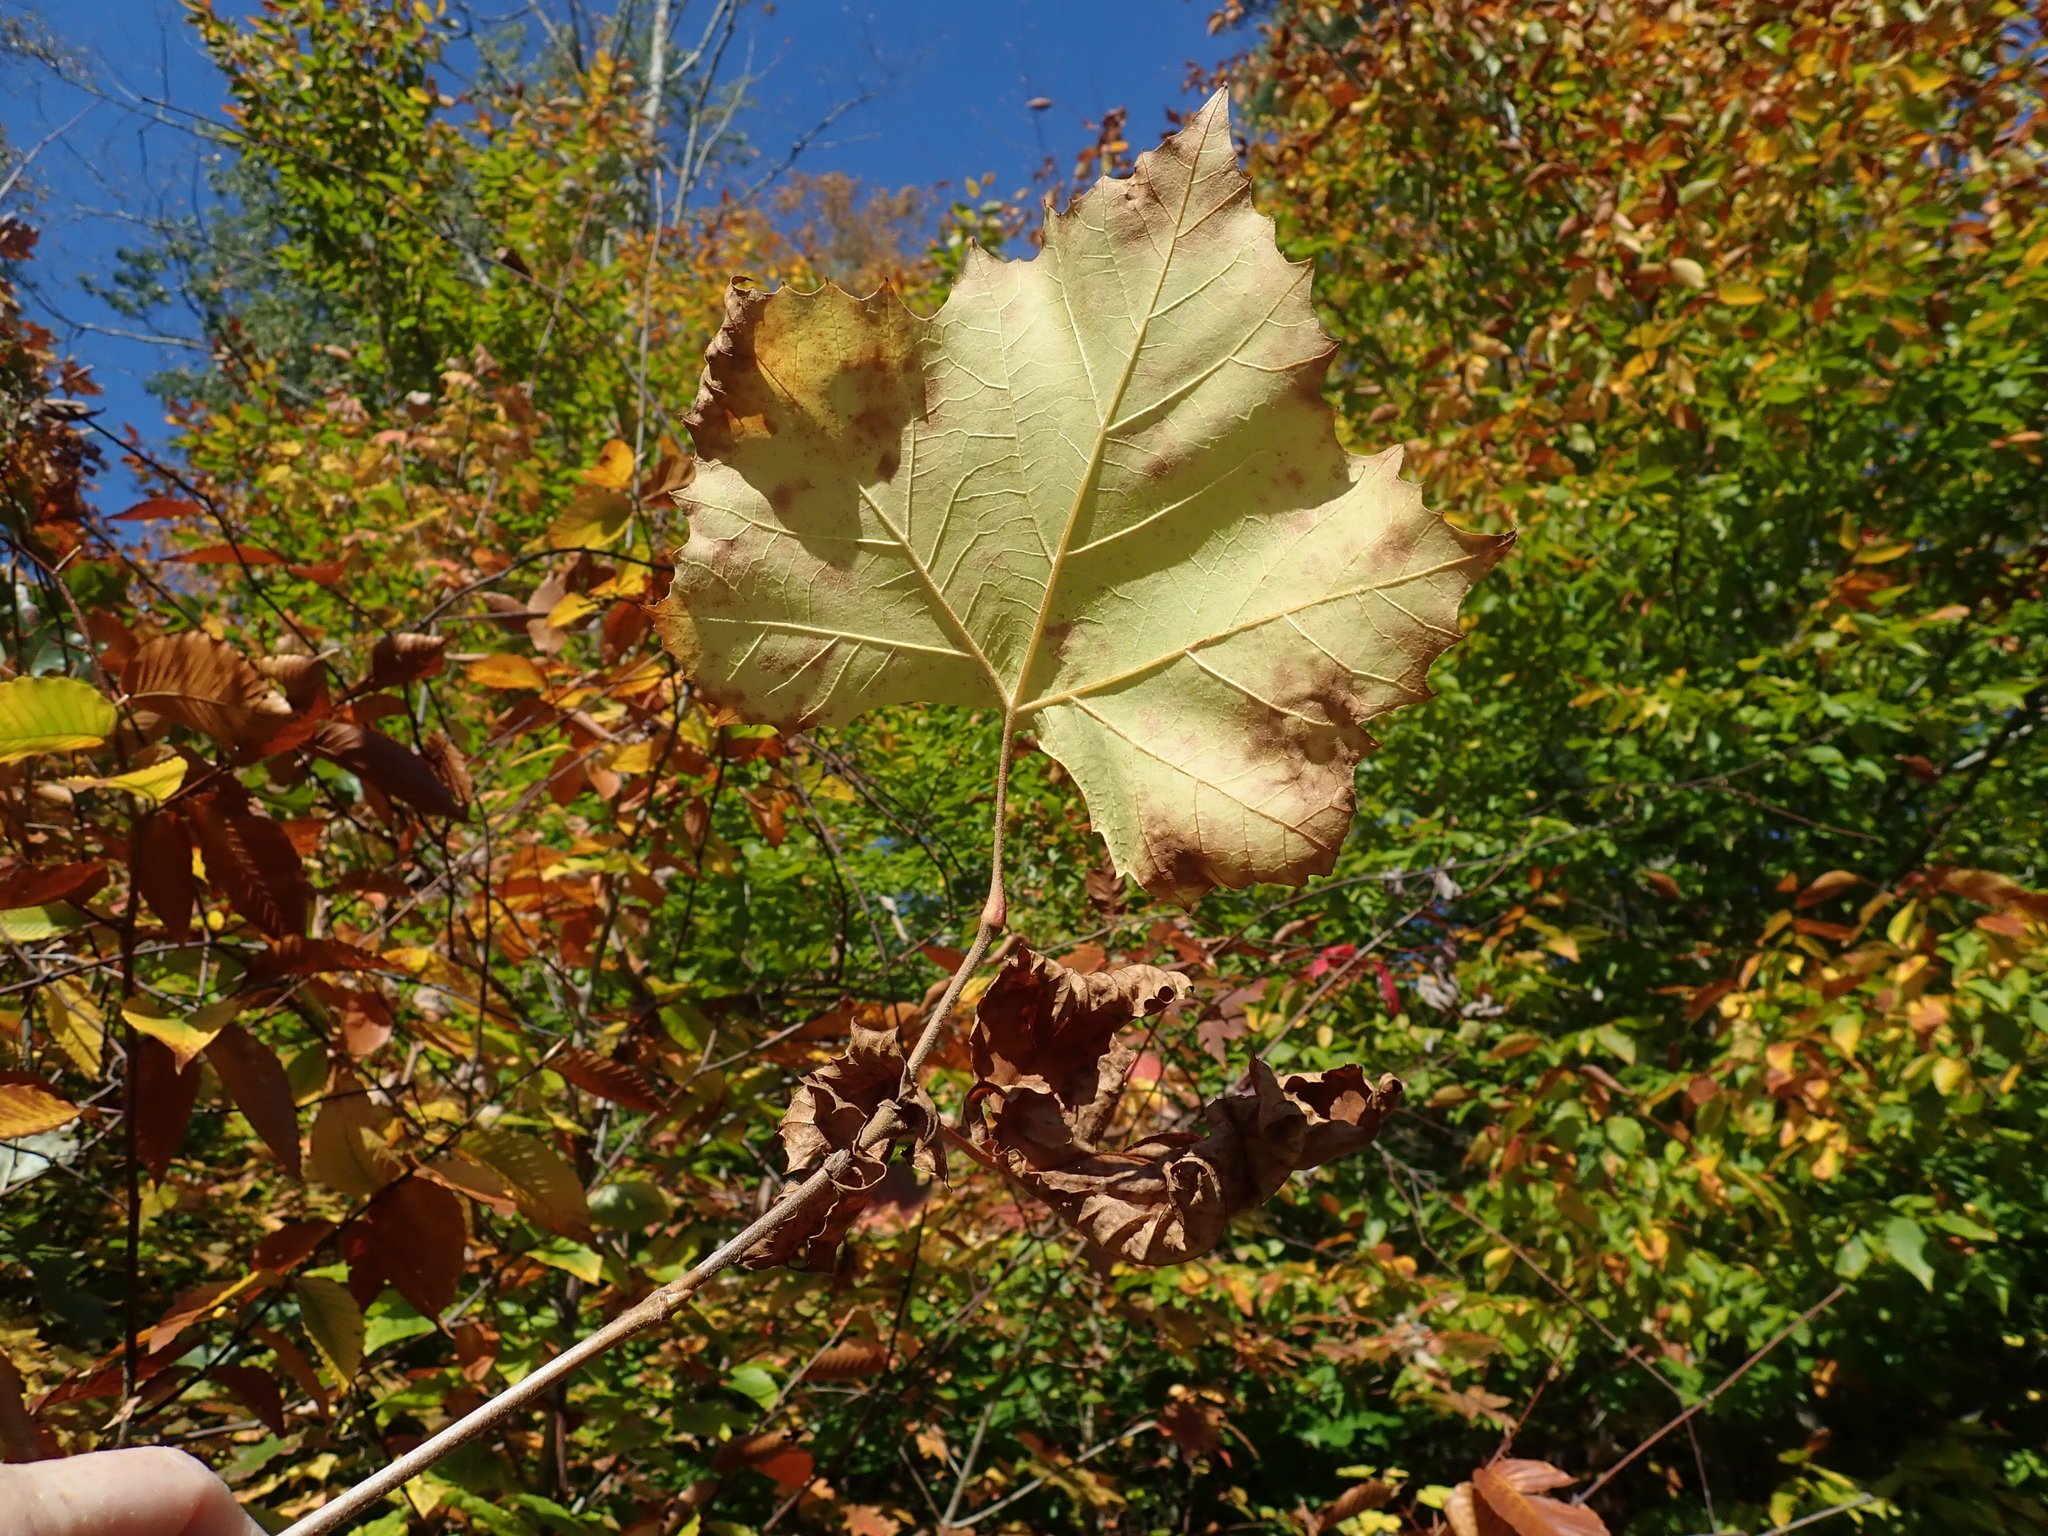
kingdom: Plantae
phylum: Tracheophyta
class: Magnoliopsida
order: Proteales
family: Platanaceae
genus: Platanus
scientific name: Platanus occidentalis
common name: American sycamore
